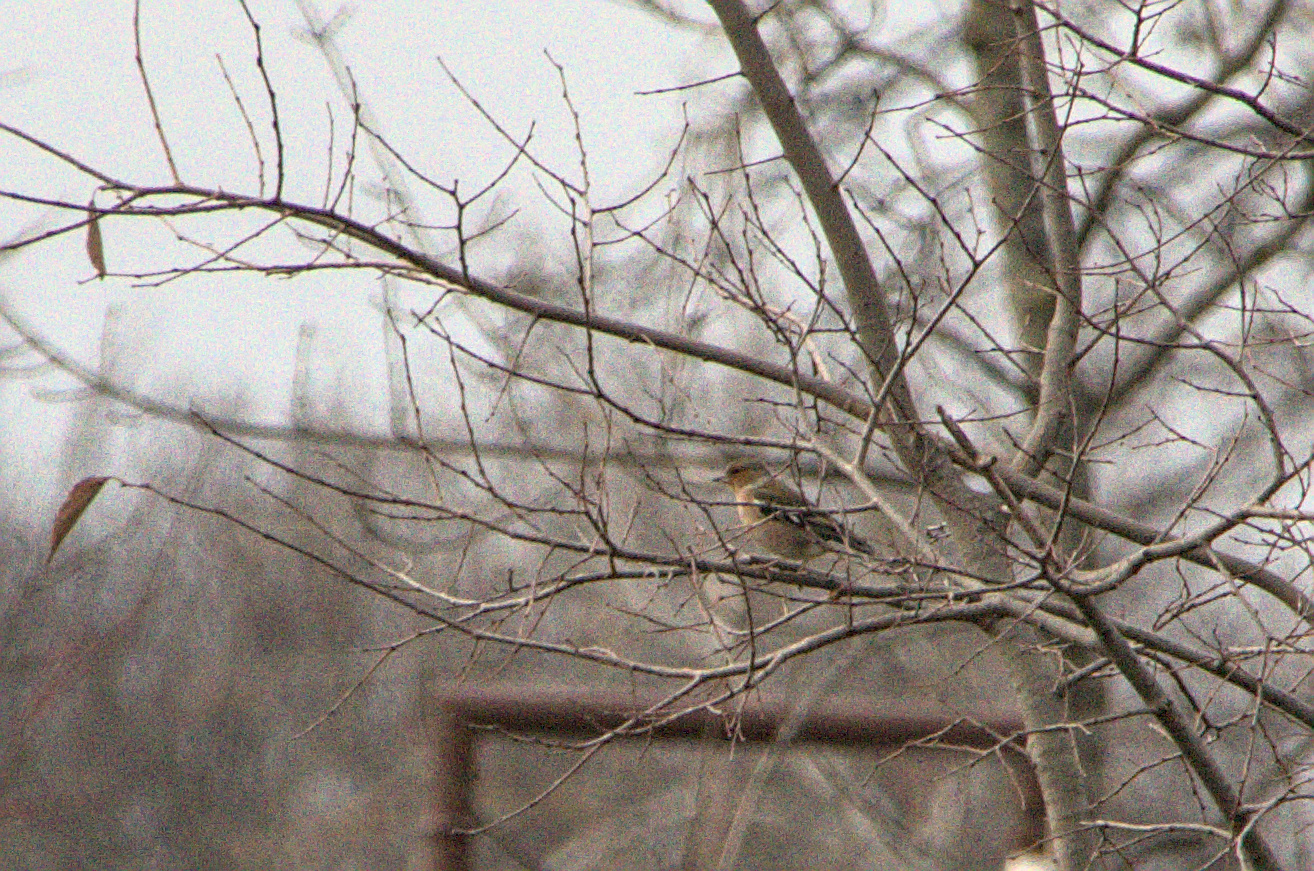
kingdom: Animalia
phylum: Chordata
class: Aves
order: Passeriformes
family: Fringillidae
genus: Fringilla
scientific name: Fringilla coelebs
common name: Common chaffinch
